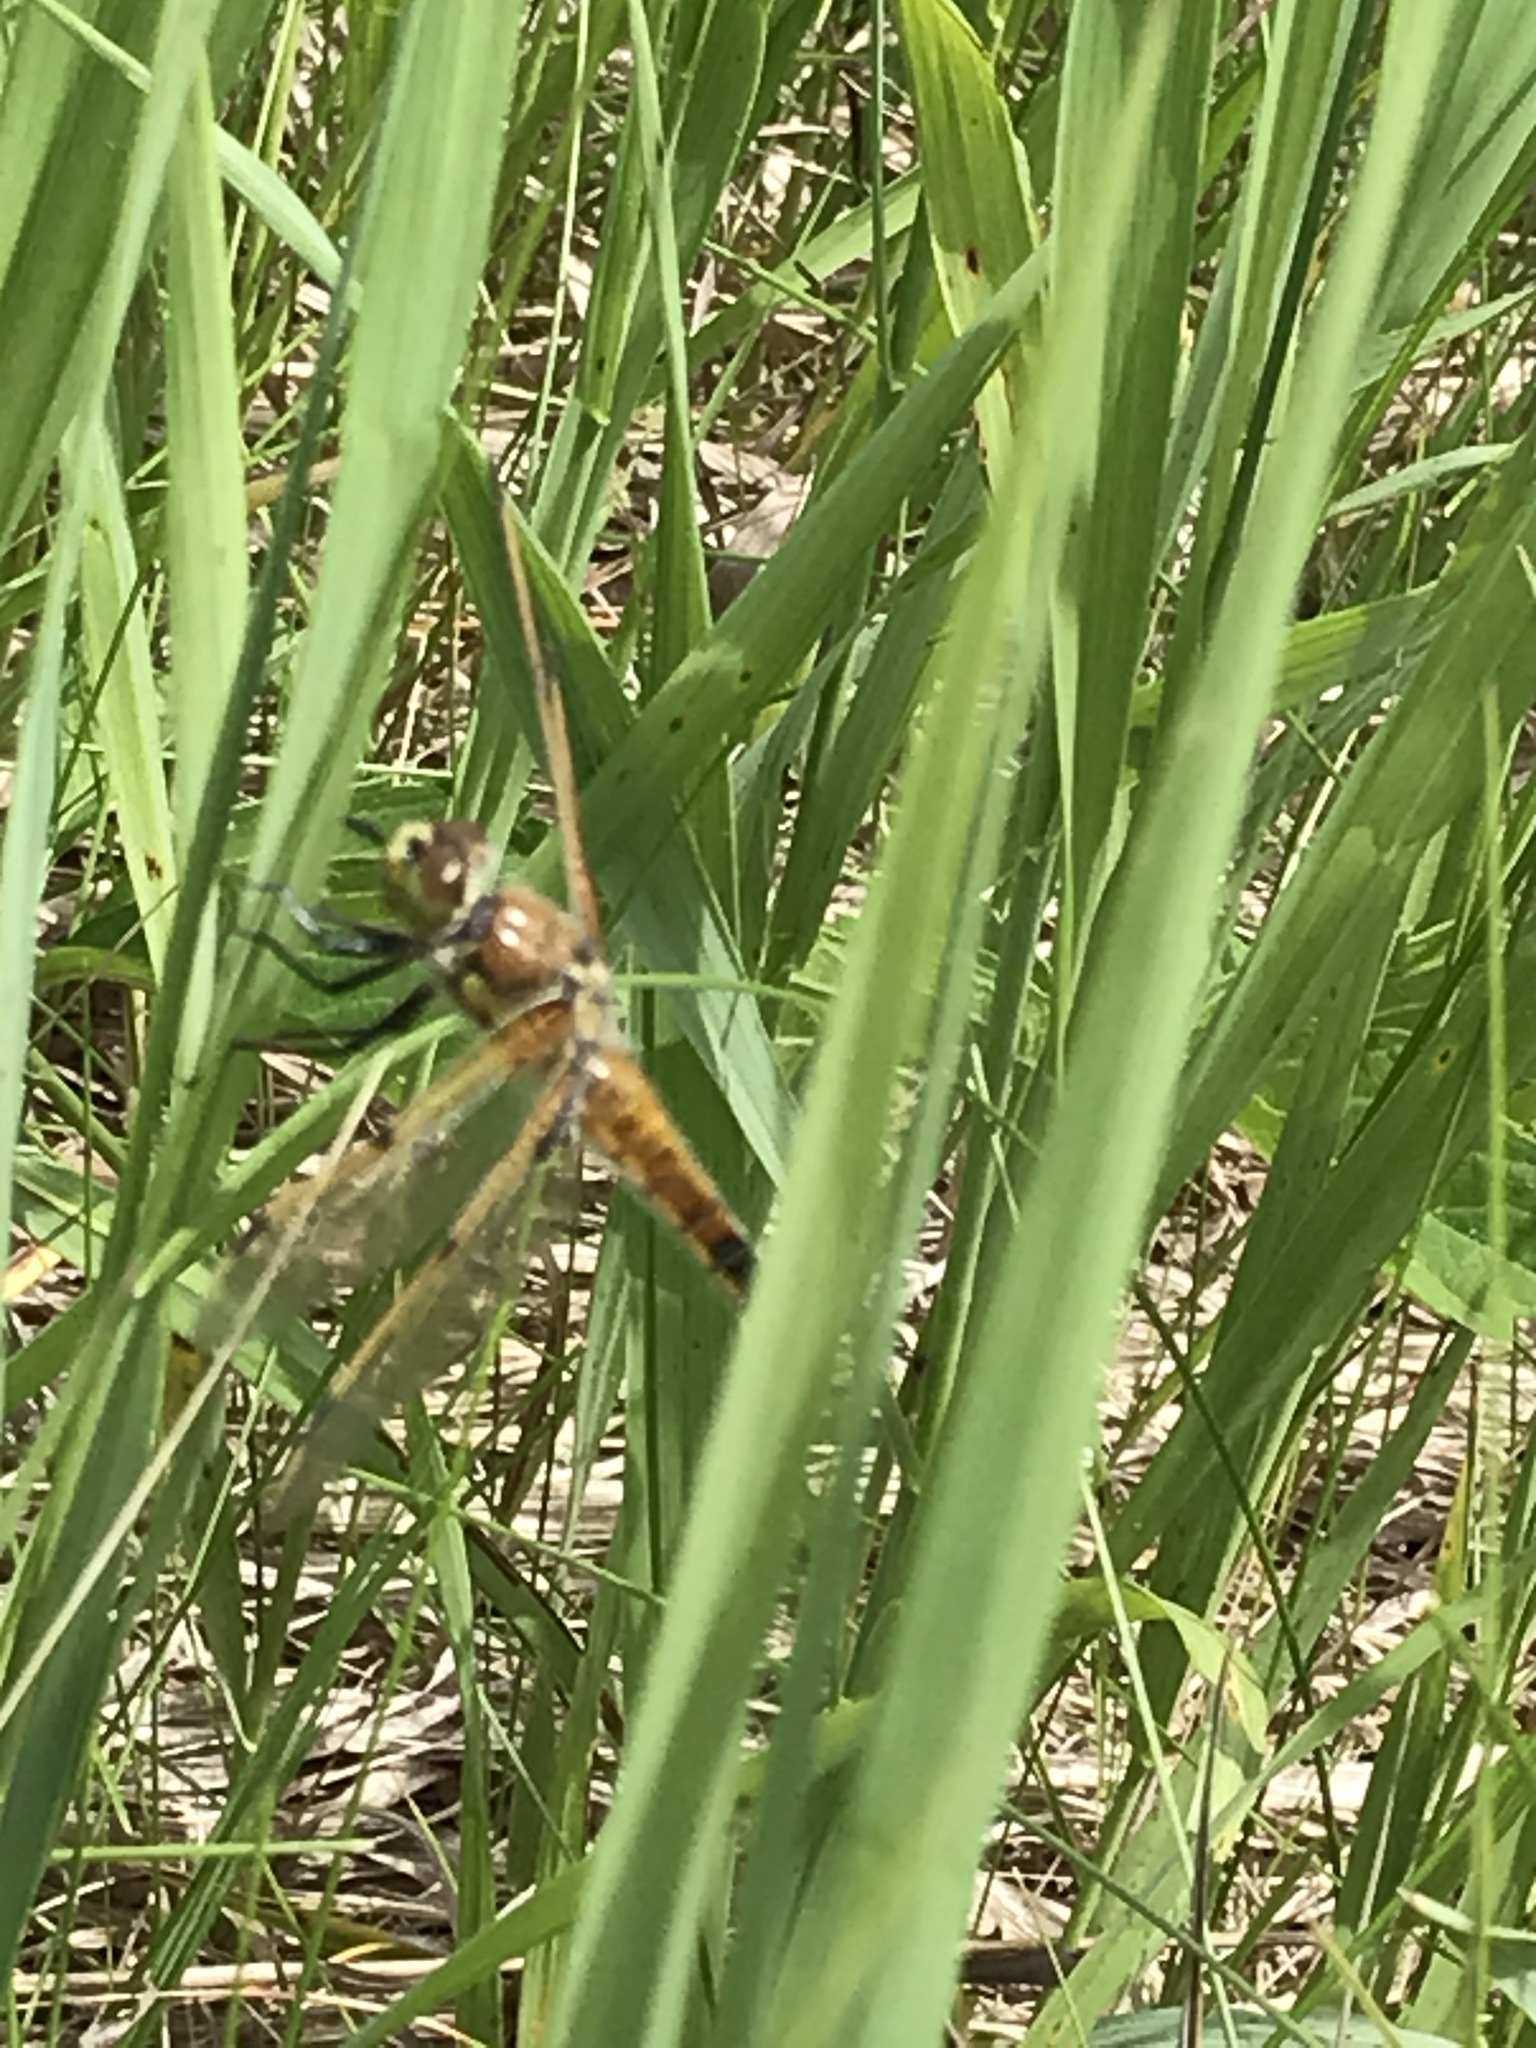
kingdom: Animalia
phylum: Arthropoda
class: Insecta
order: Odonata
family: Libellulidae
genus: Libellula
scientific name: Libellula quadrimaculata
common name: Four-spotted chaser
